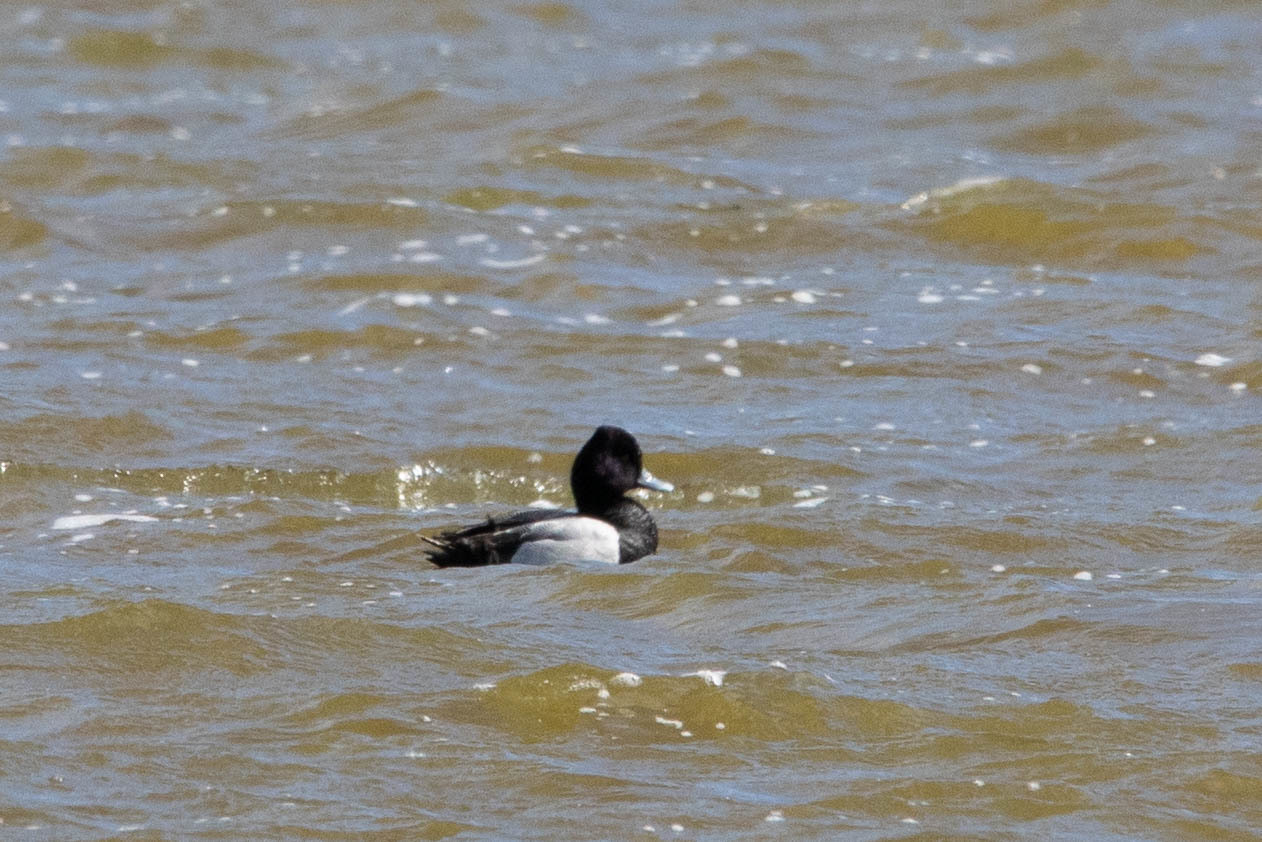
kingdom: Animalia
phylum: Chordata
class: Aves
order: Anseriformes
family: Anatidae
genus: Aythya
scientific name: Aythya affinis
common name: Lesser scaup
